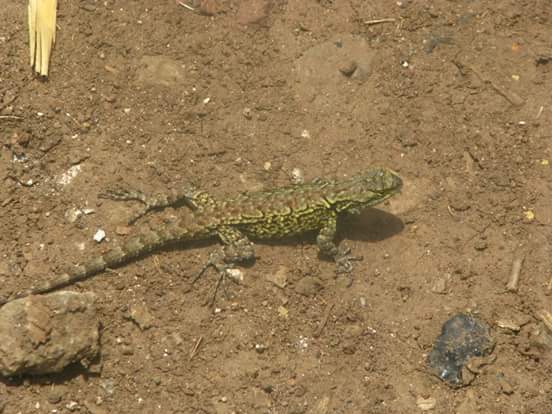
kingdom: Animalia
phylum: Chordata
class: Squamata
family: Phrynosomatidae
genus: Sceloporus
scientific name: Sceloporus grammicus
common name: Mesquite lizard
